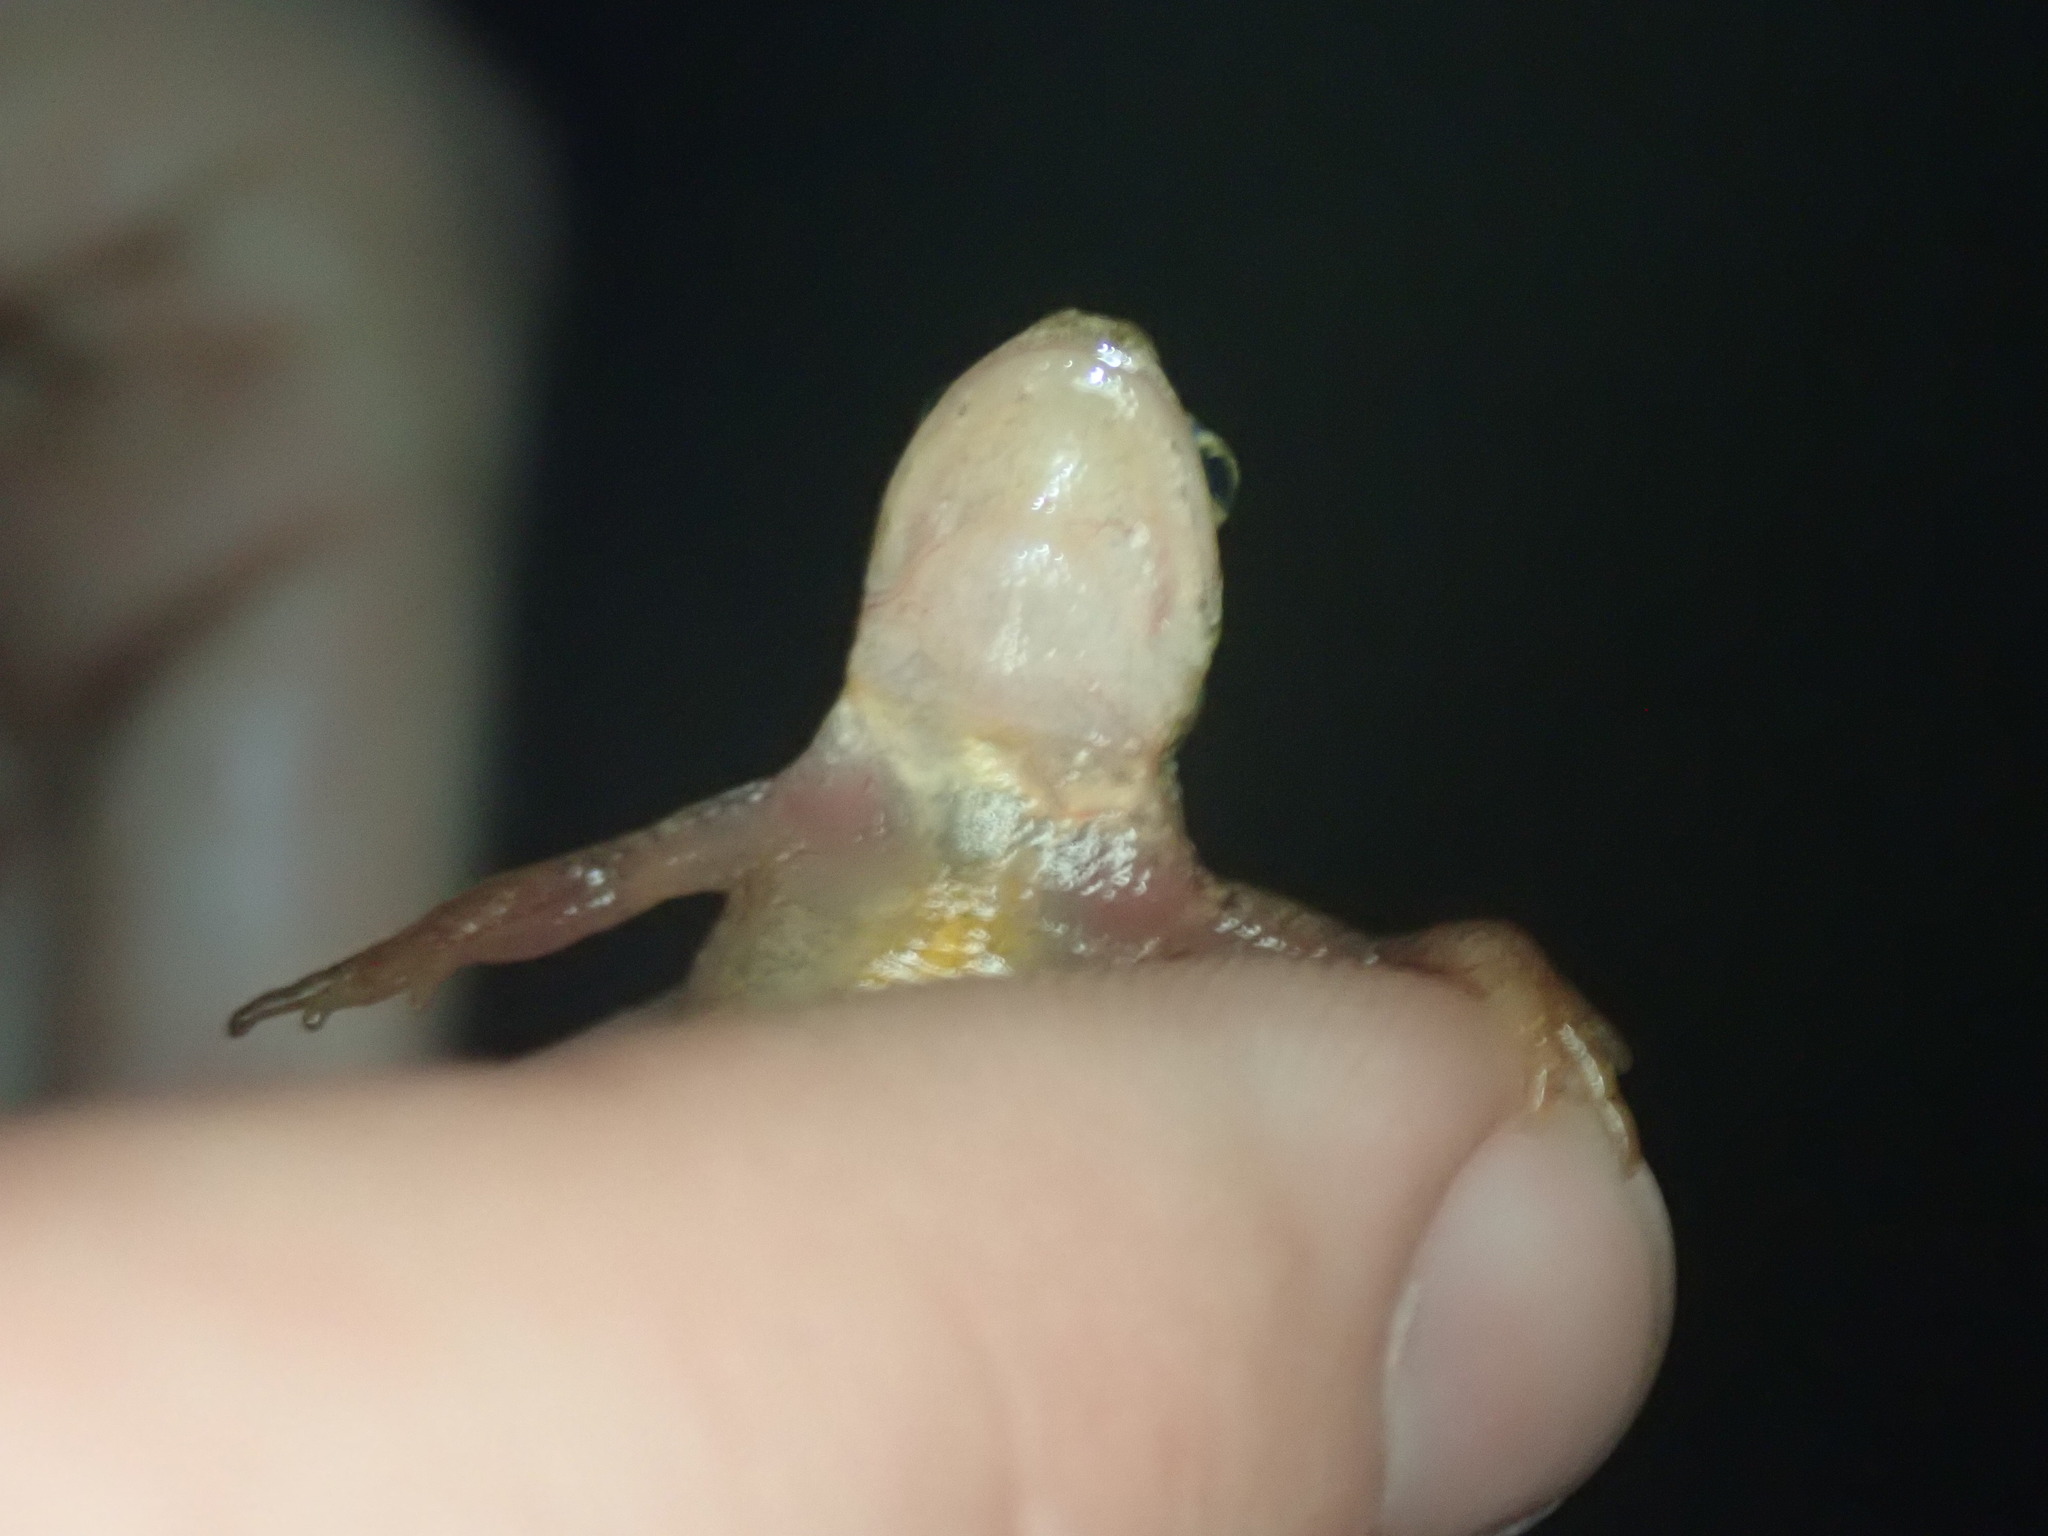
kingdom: Animalia
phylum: Chordata
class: Amphibia
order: Caudata
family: Salamandridae
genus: Lissotriton
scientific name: Lissotriton helveticus
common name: Palmate newt
